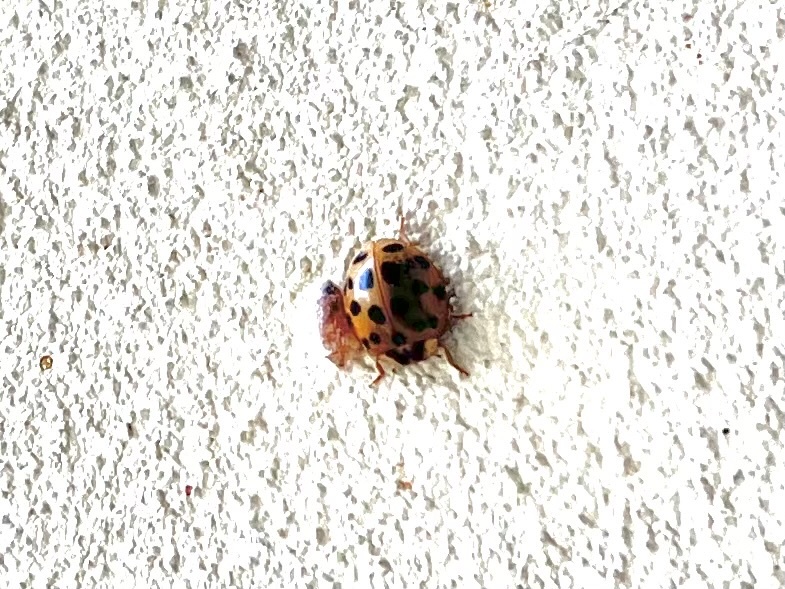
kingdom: Animalia
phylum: Arthropoda
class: Insecta
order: Coleoptera
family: Coccinellidae
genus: Harmonia
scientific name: Harmonia axyridis
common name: Harlequin ladybird
